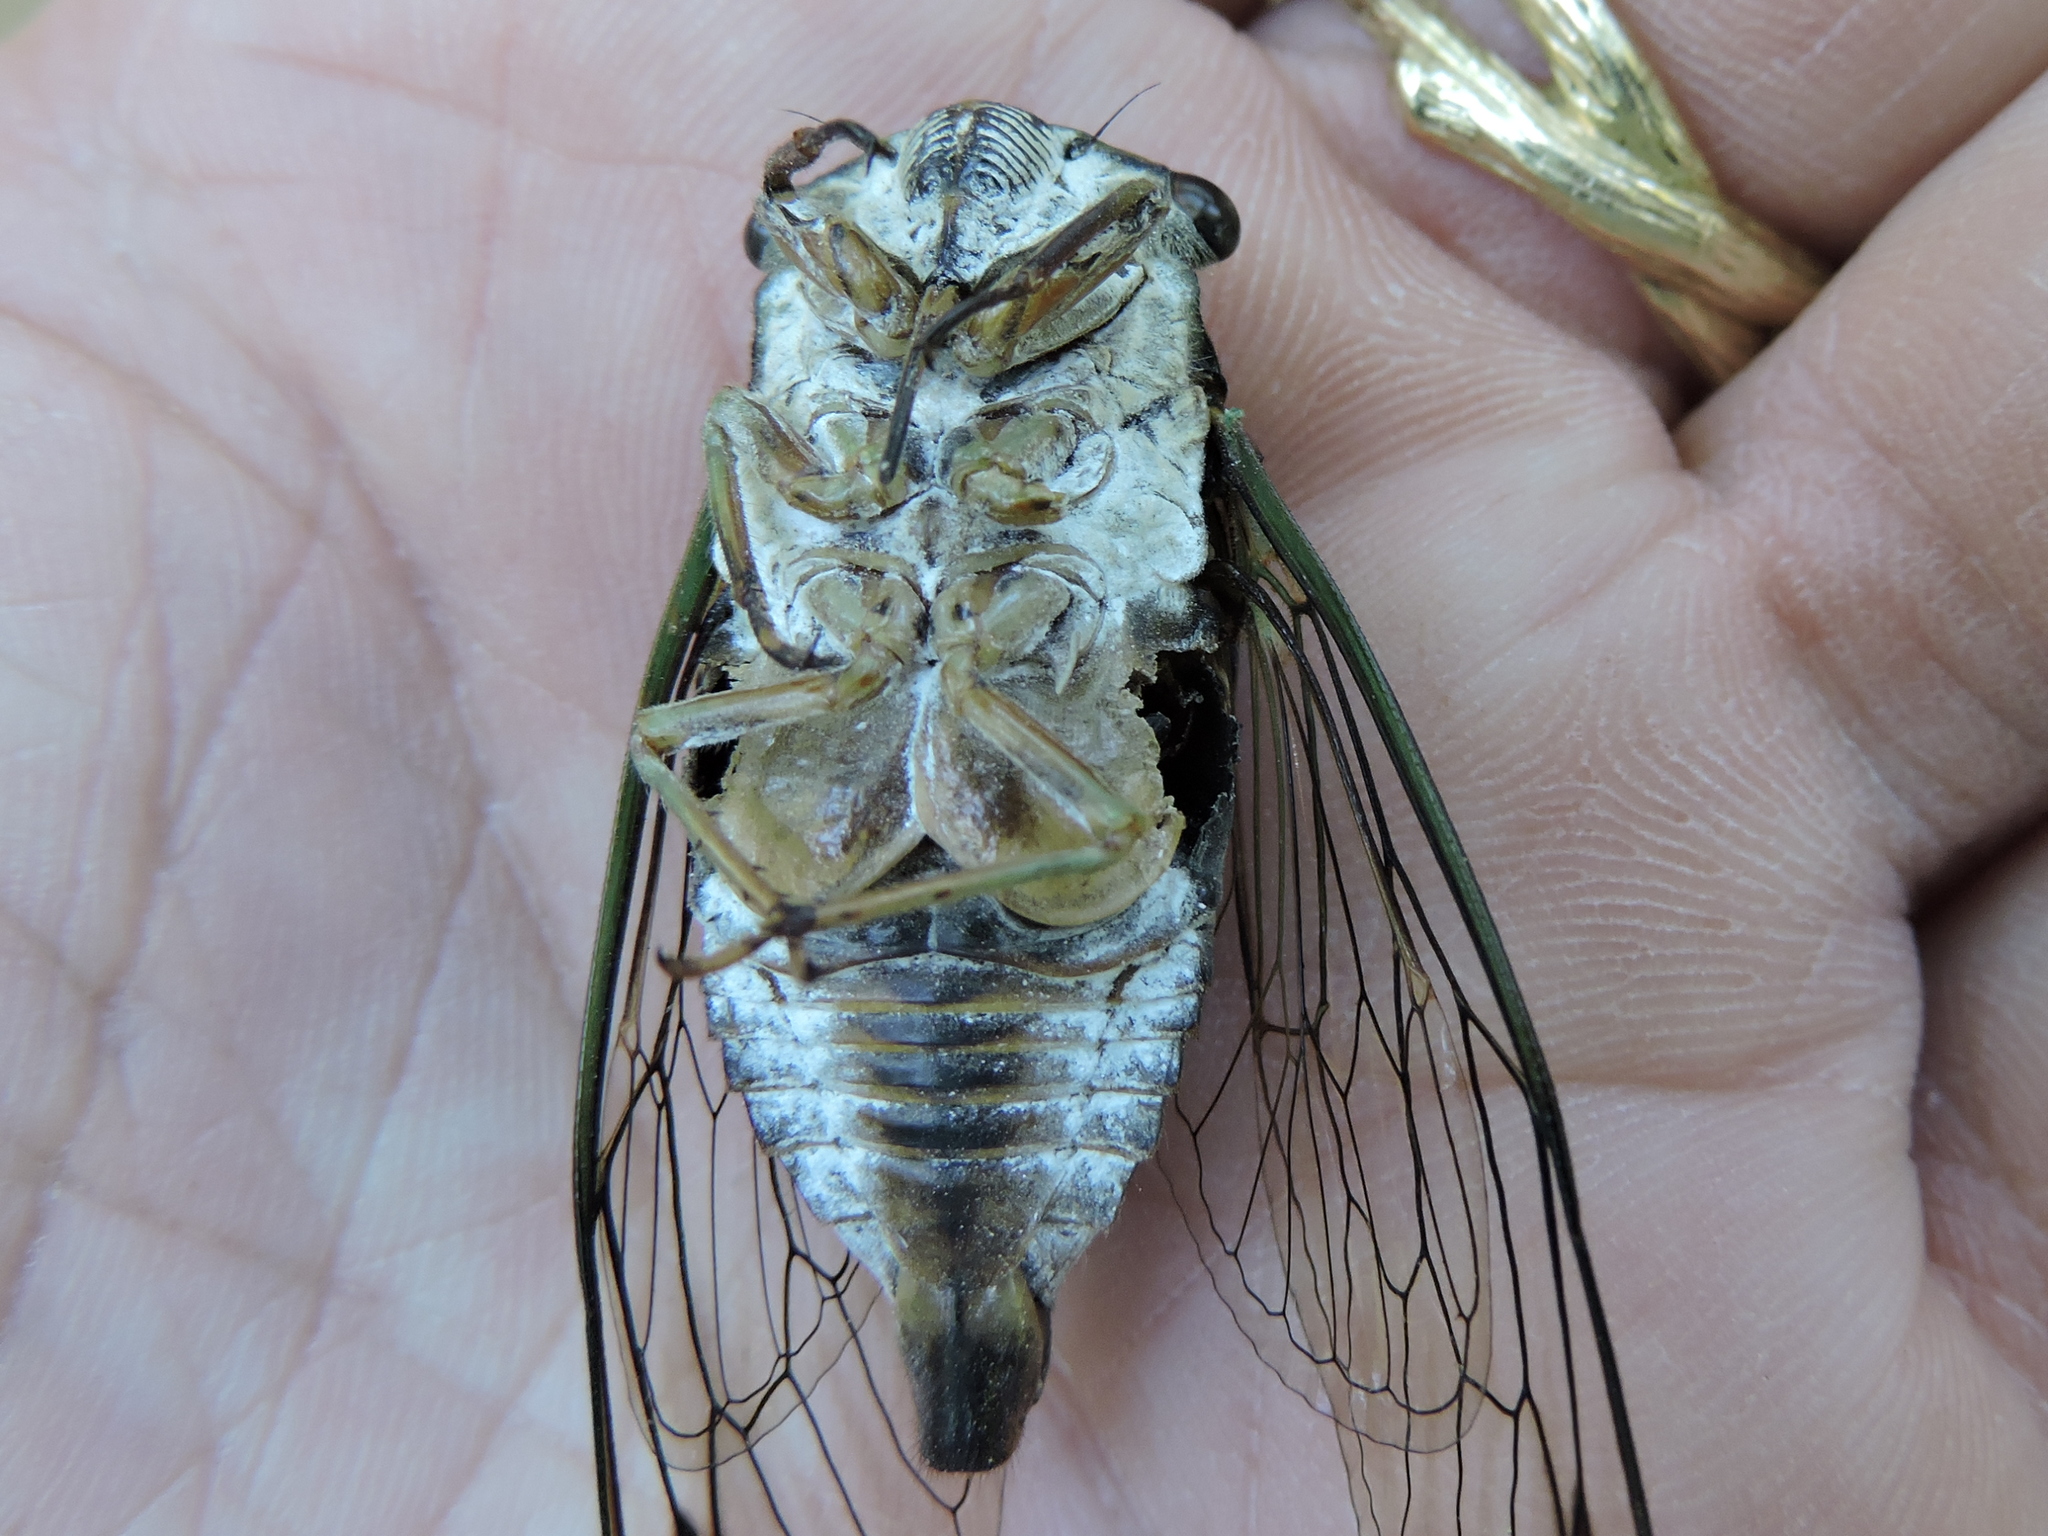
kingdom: Animalia
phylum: Arthropoda
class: Insecta
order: Hemiptera
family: Cicadidae
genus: Neotibicen
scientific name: Neotibicen pruinosus
